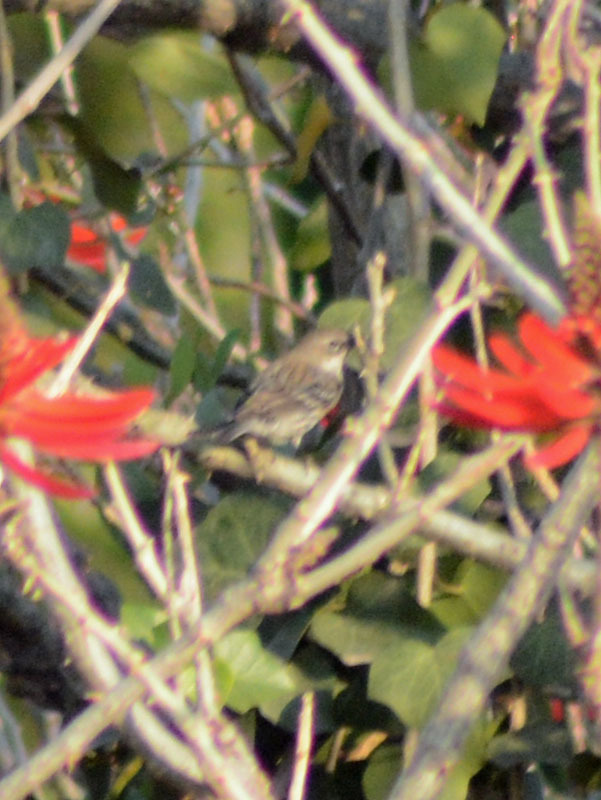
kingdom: Animalia
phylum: Chordata
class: Aves
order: Passeriformes
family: Parulidae
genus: Setophaga
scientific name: Setophaga coronata
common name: Myrtle warbler
